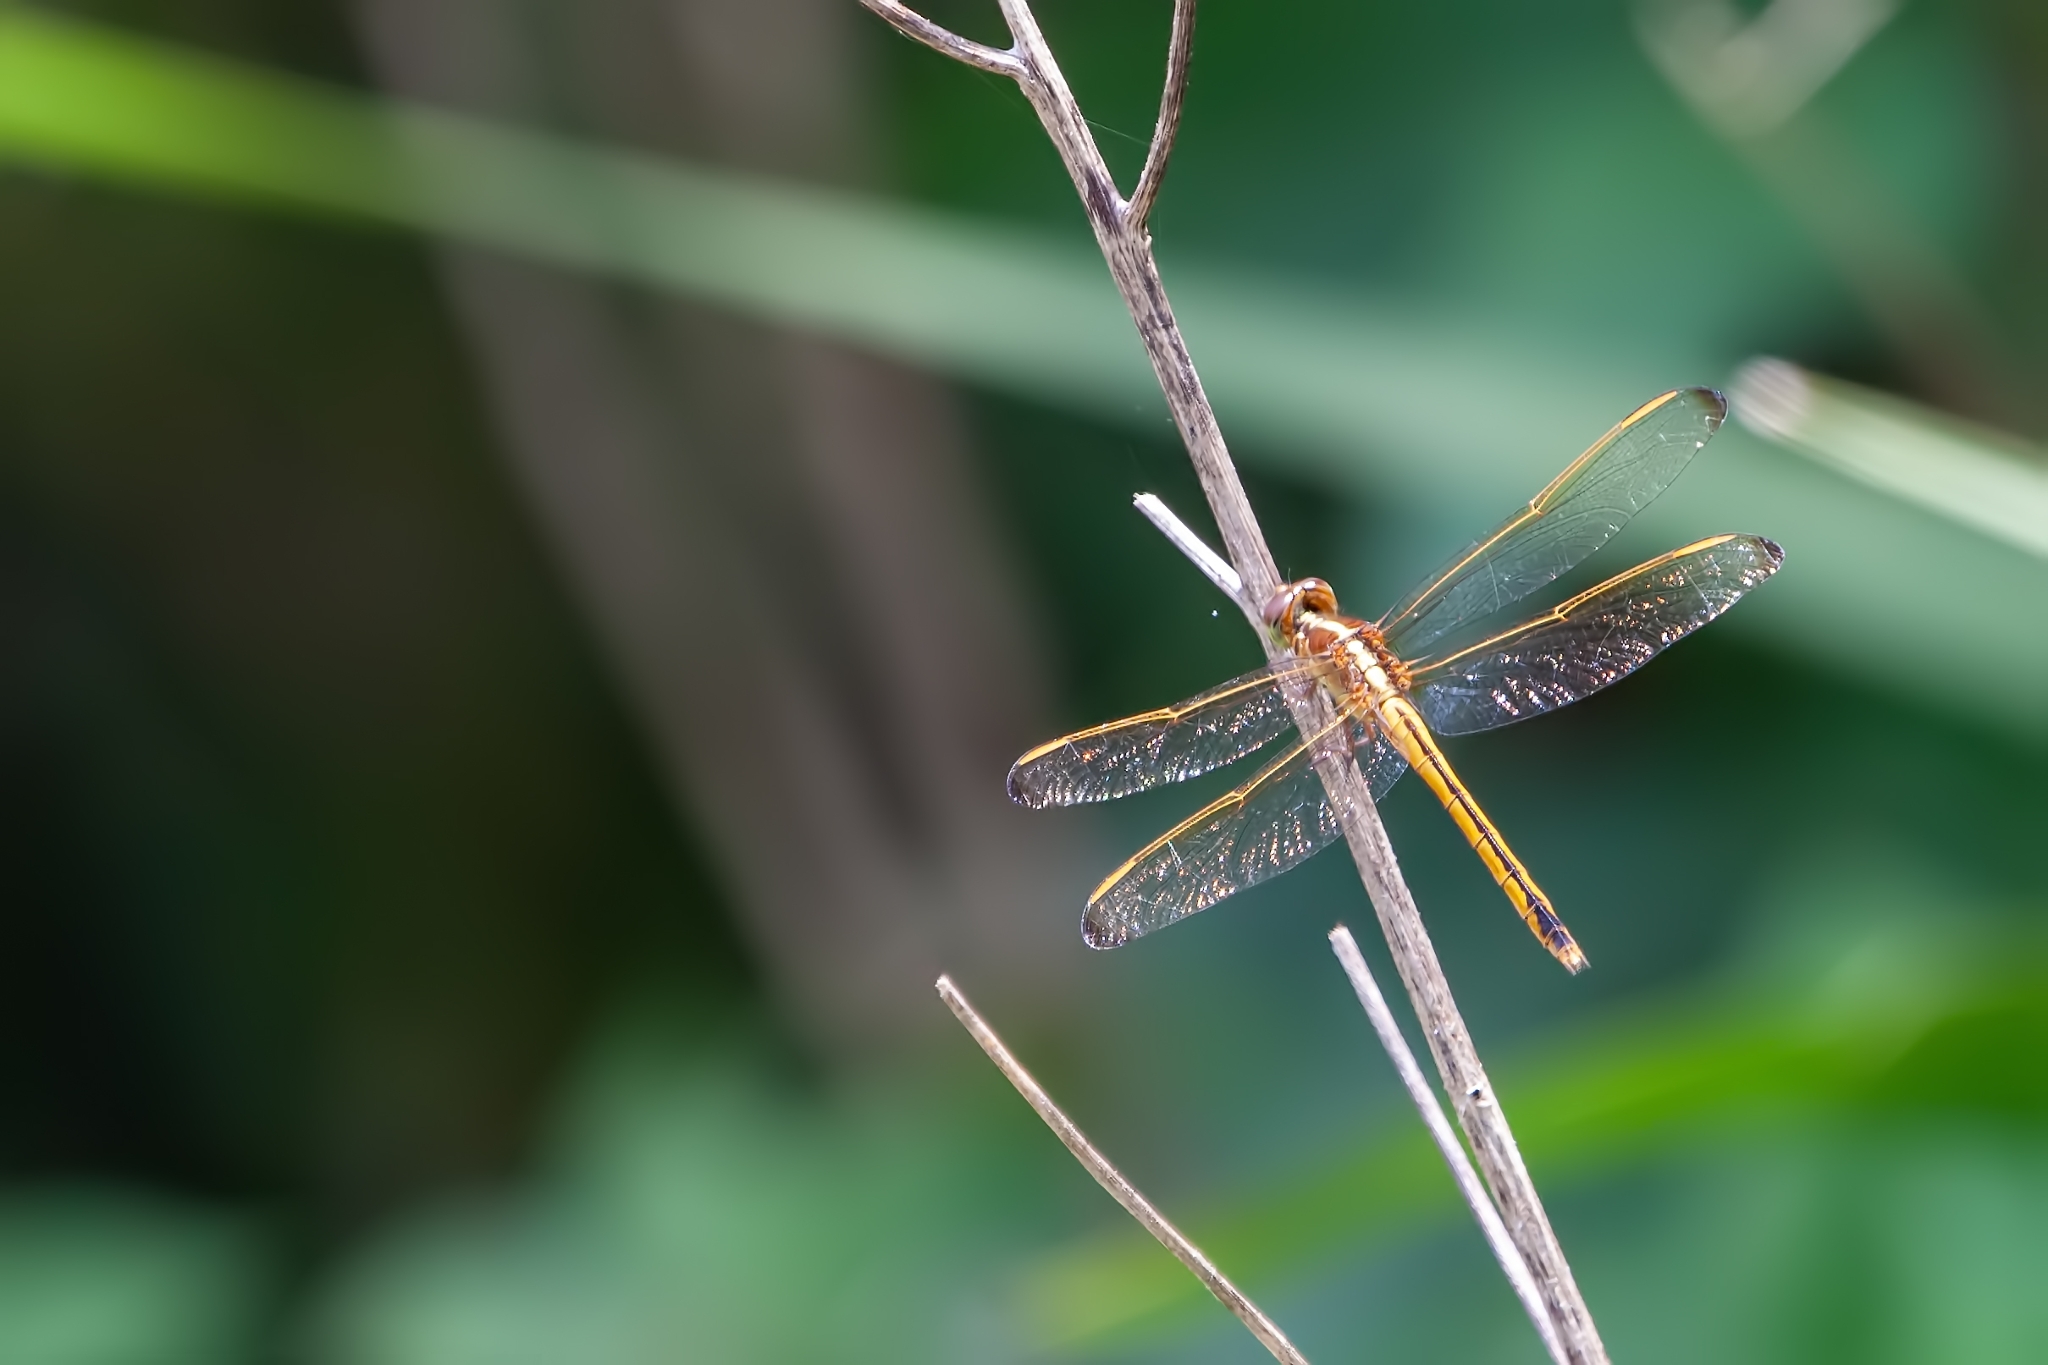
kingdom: Animalia
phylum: Arthropoda
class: Insecta
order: Odonata
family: Libellulidae
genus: Libellula
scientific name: Libellula needhami
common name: Needham's skimmer
